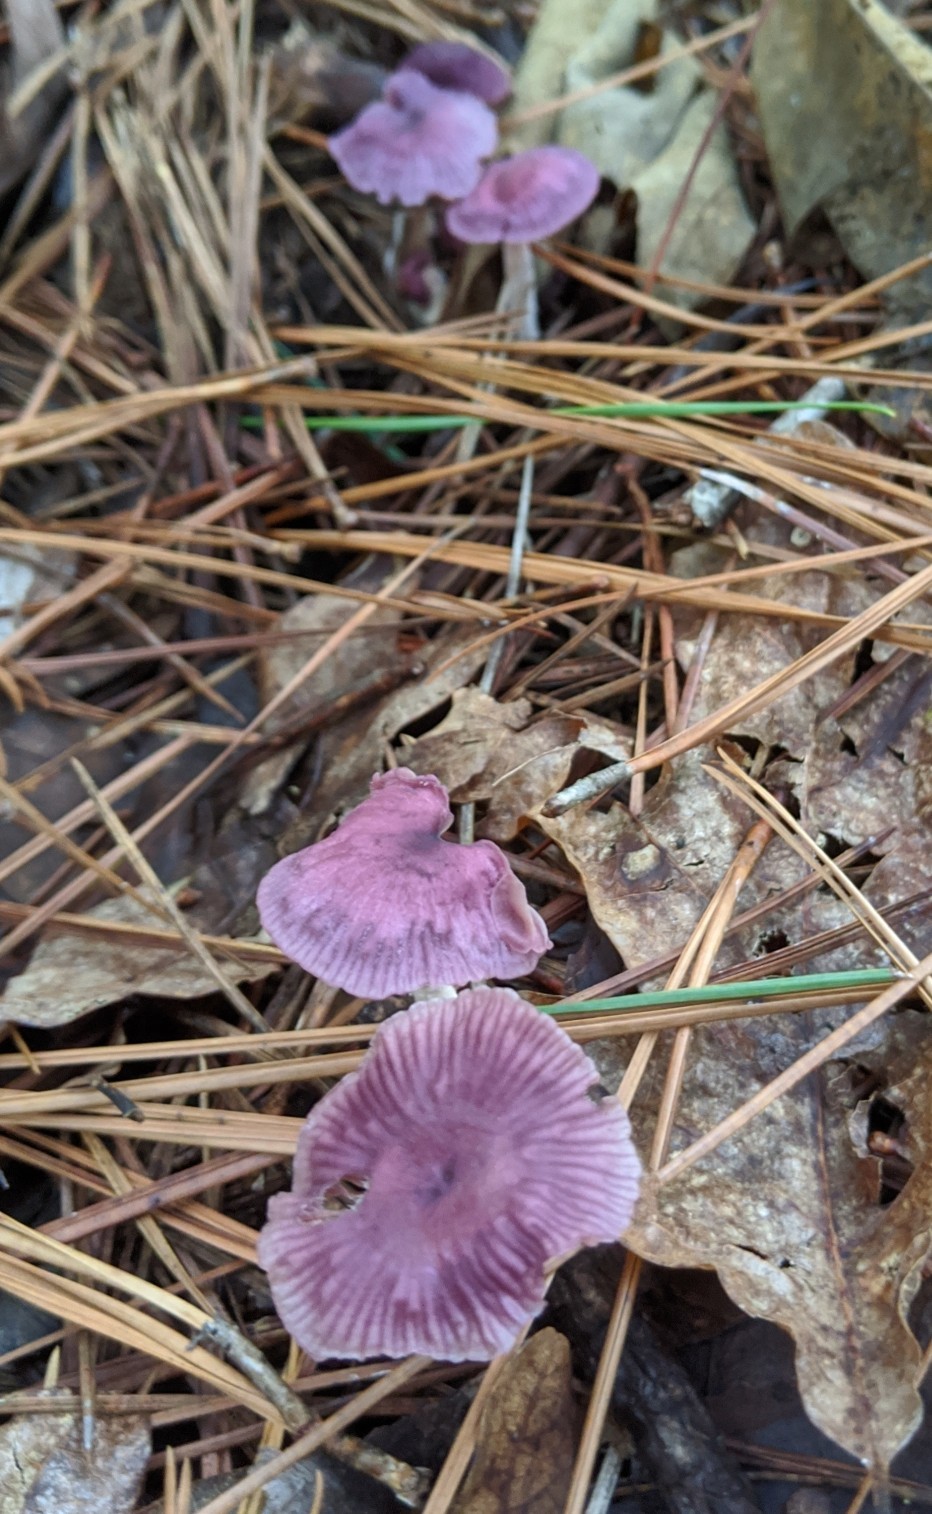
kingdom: Fungi
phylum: Basidiomycota
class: Agaricomycetes
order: Agaricales
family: Omphalotaceae
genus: Gymnopus
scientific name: Gymnopus iocephalus
